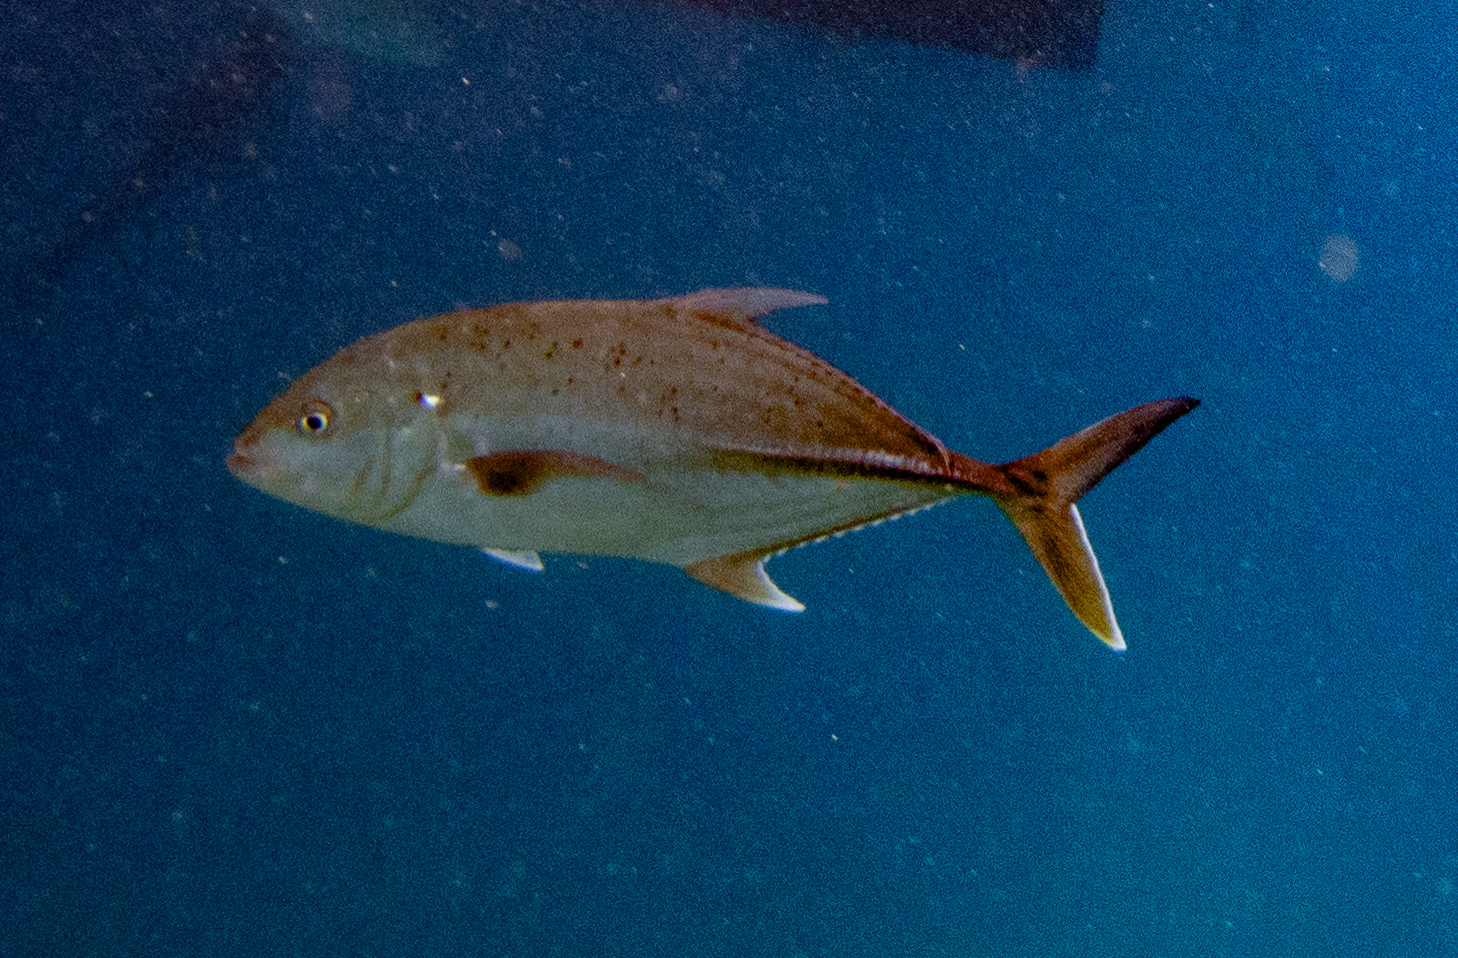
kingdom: Animalia
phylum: Chordata
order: Perciformes
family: Carangidae
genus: Caranx
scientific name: Caranx papuensis
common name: Brassy trevally
